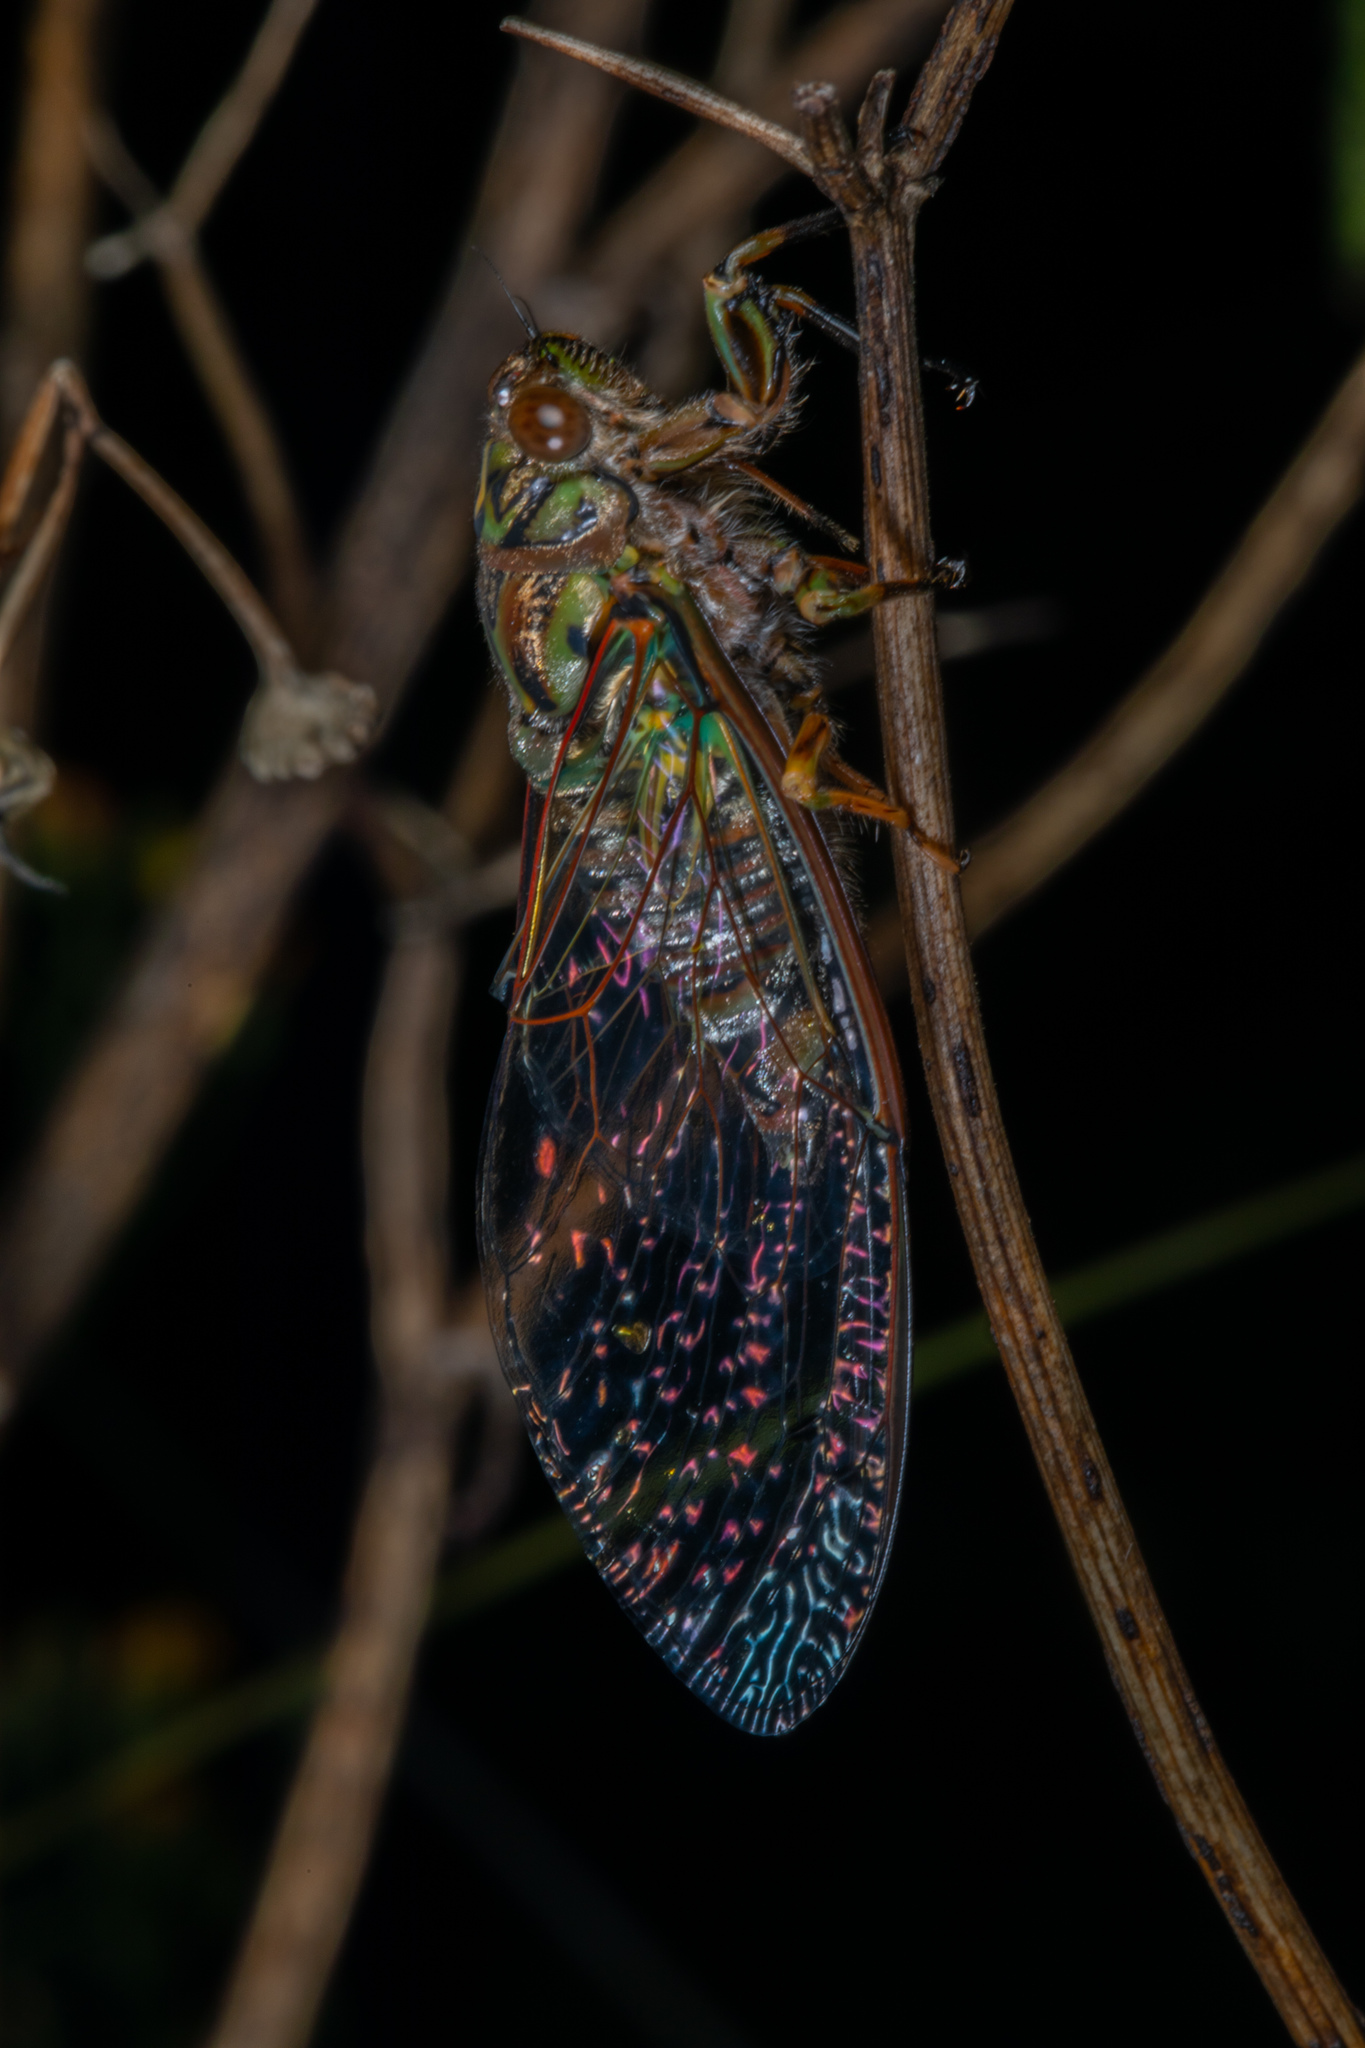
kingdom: Animalia
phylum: Arthropoda
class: Insecta
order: Hemiptera
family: Cicadidae
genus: Amphipsalta
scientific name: Amphipsalta zelandica
